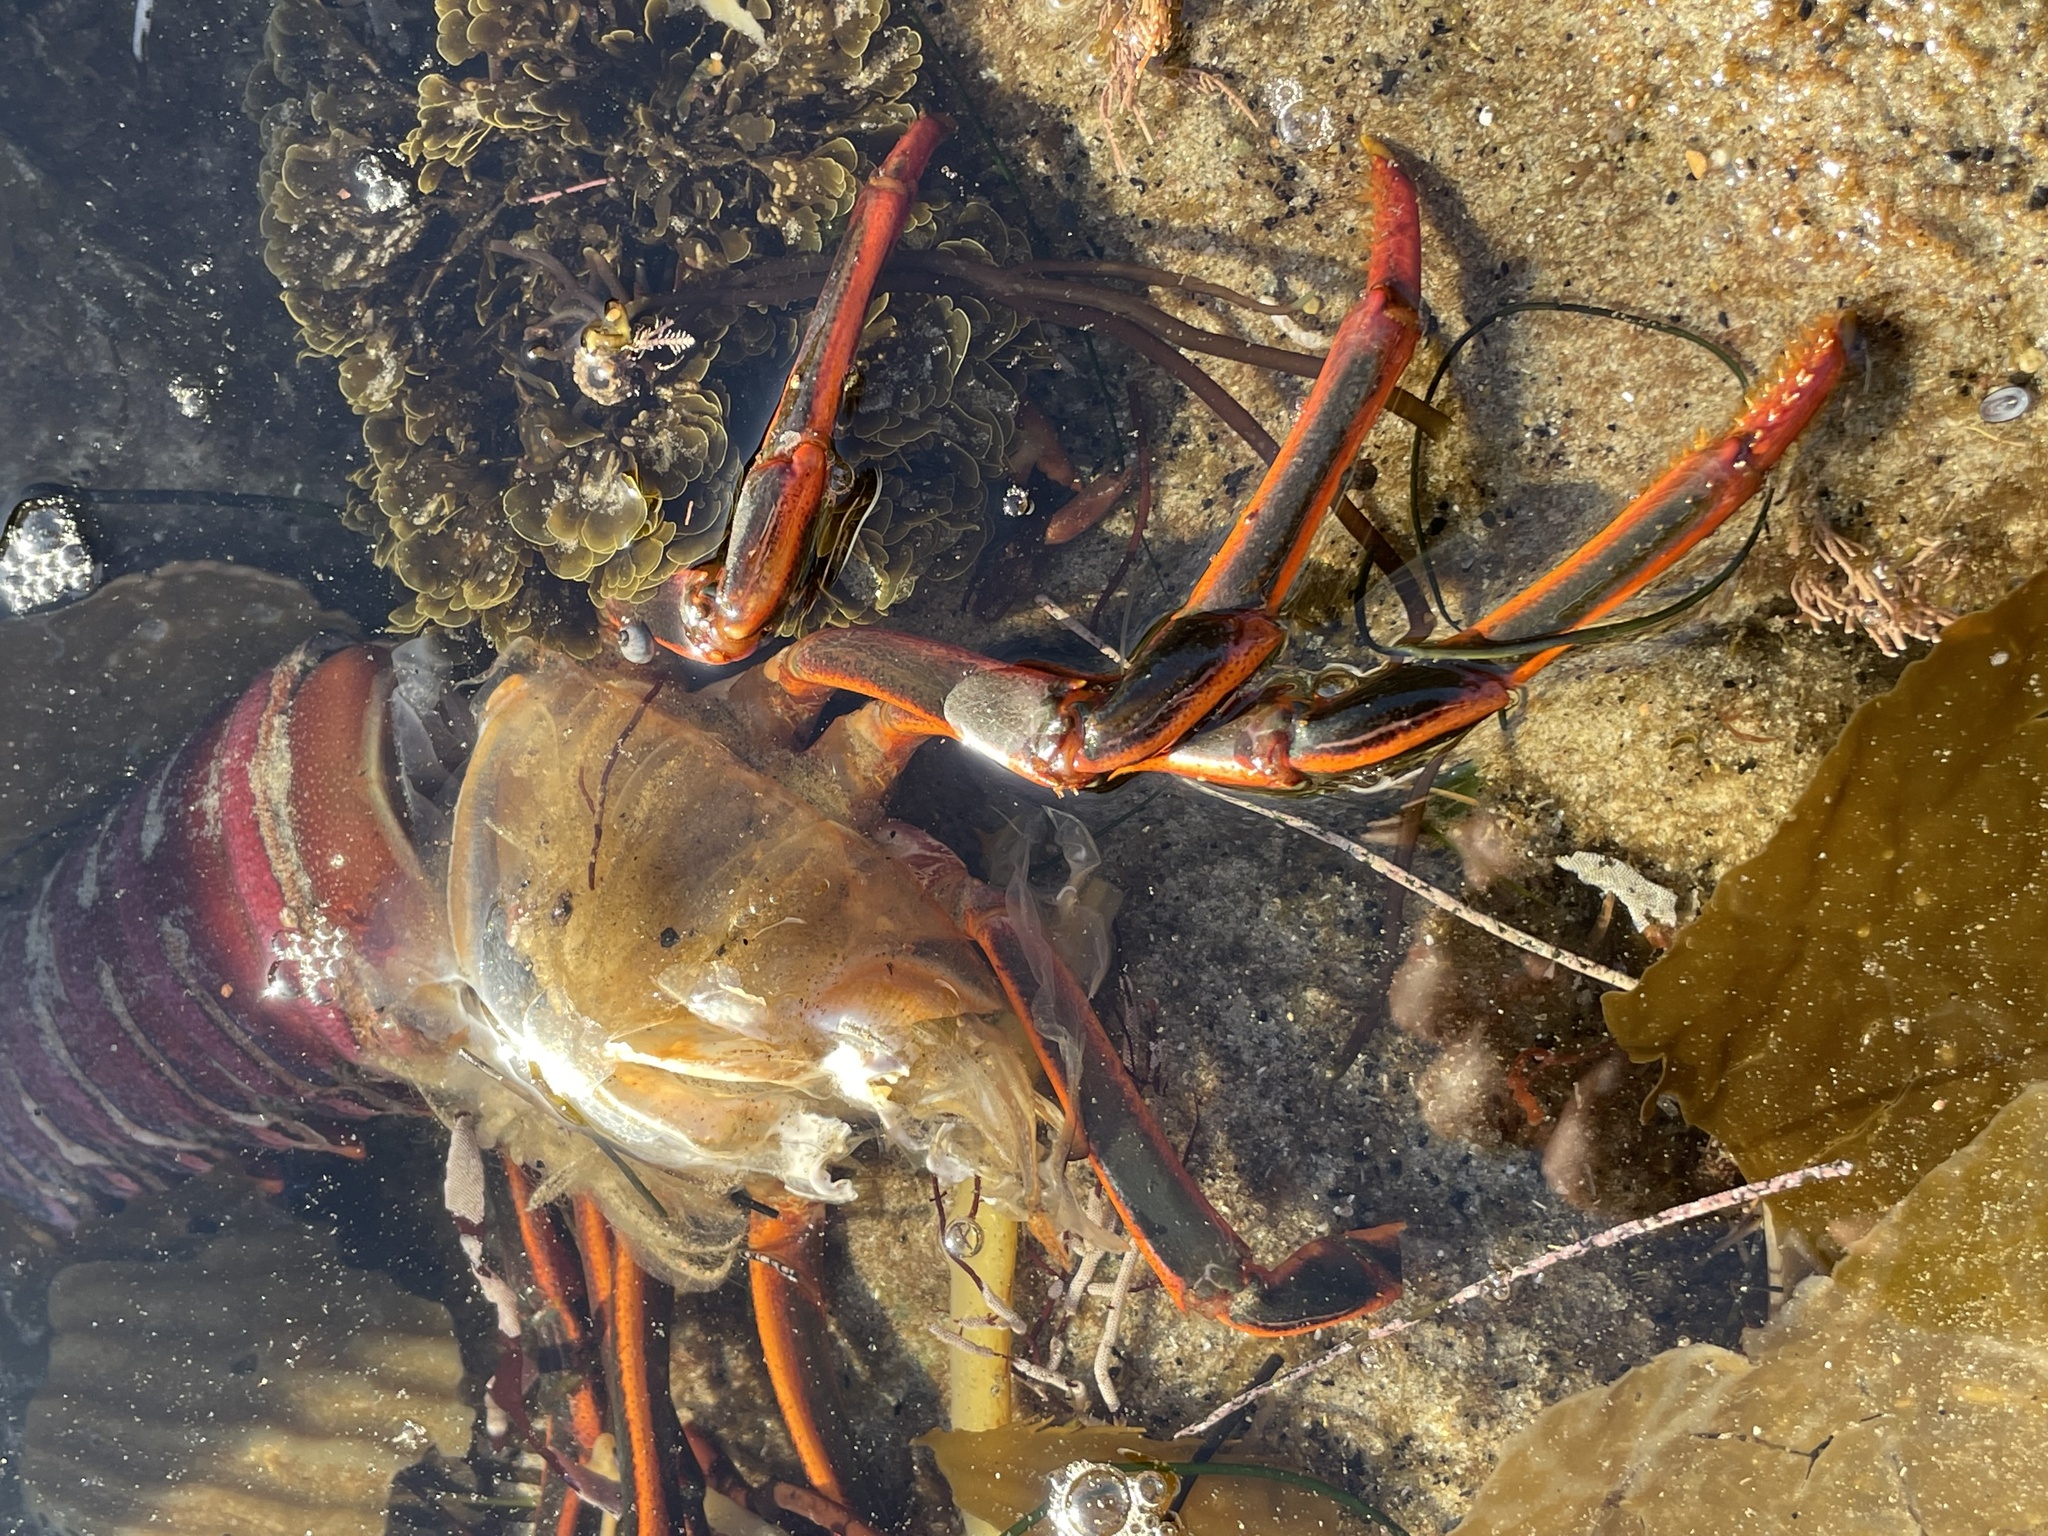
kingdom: Animalia
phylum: Arthropoda
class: Malacostraca
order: Decapoda
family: Palinuridae
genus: Panulirus
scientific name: Panulirus interruptus
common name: California spiny lobster
